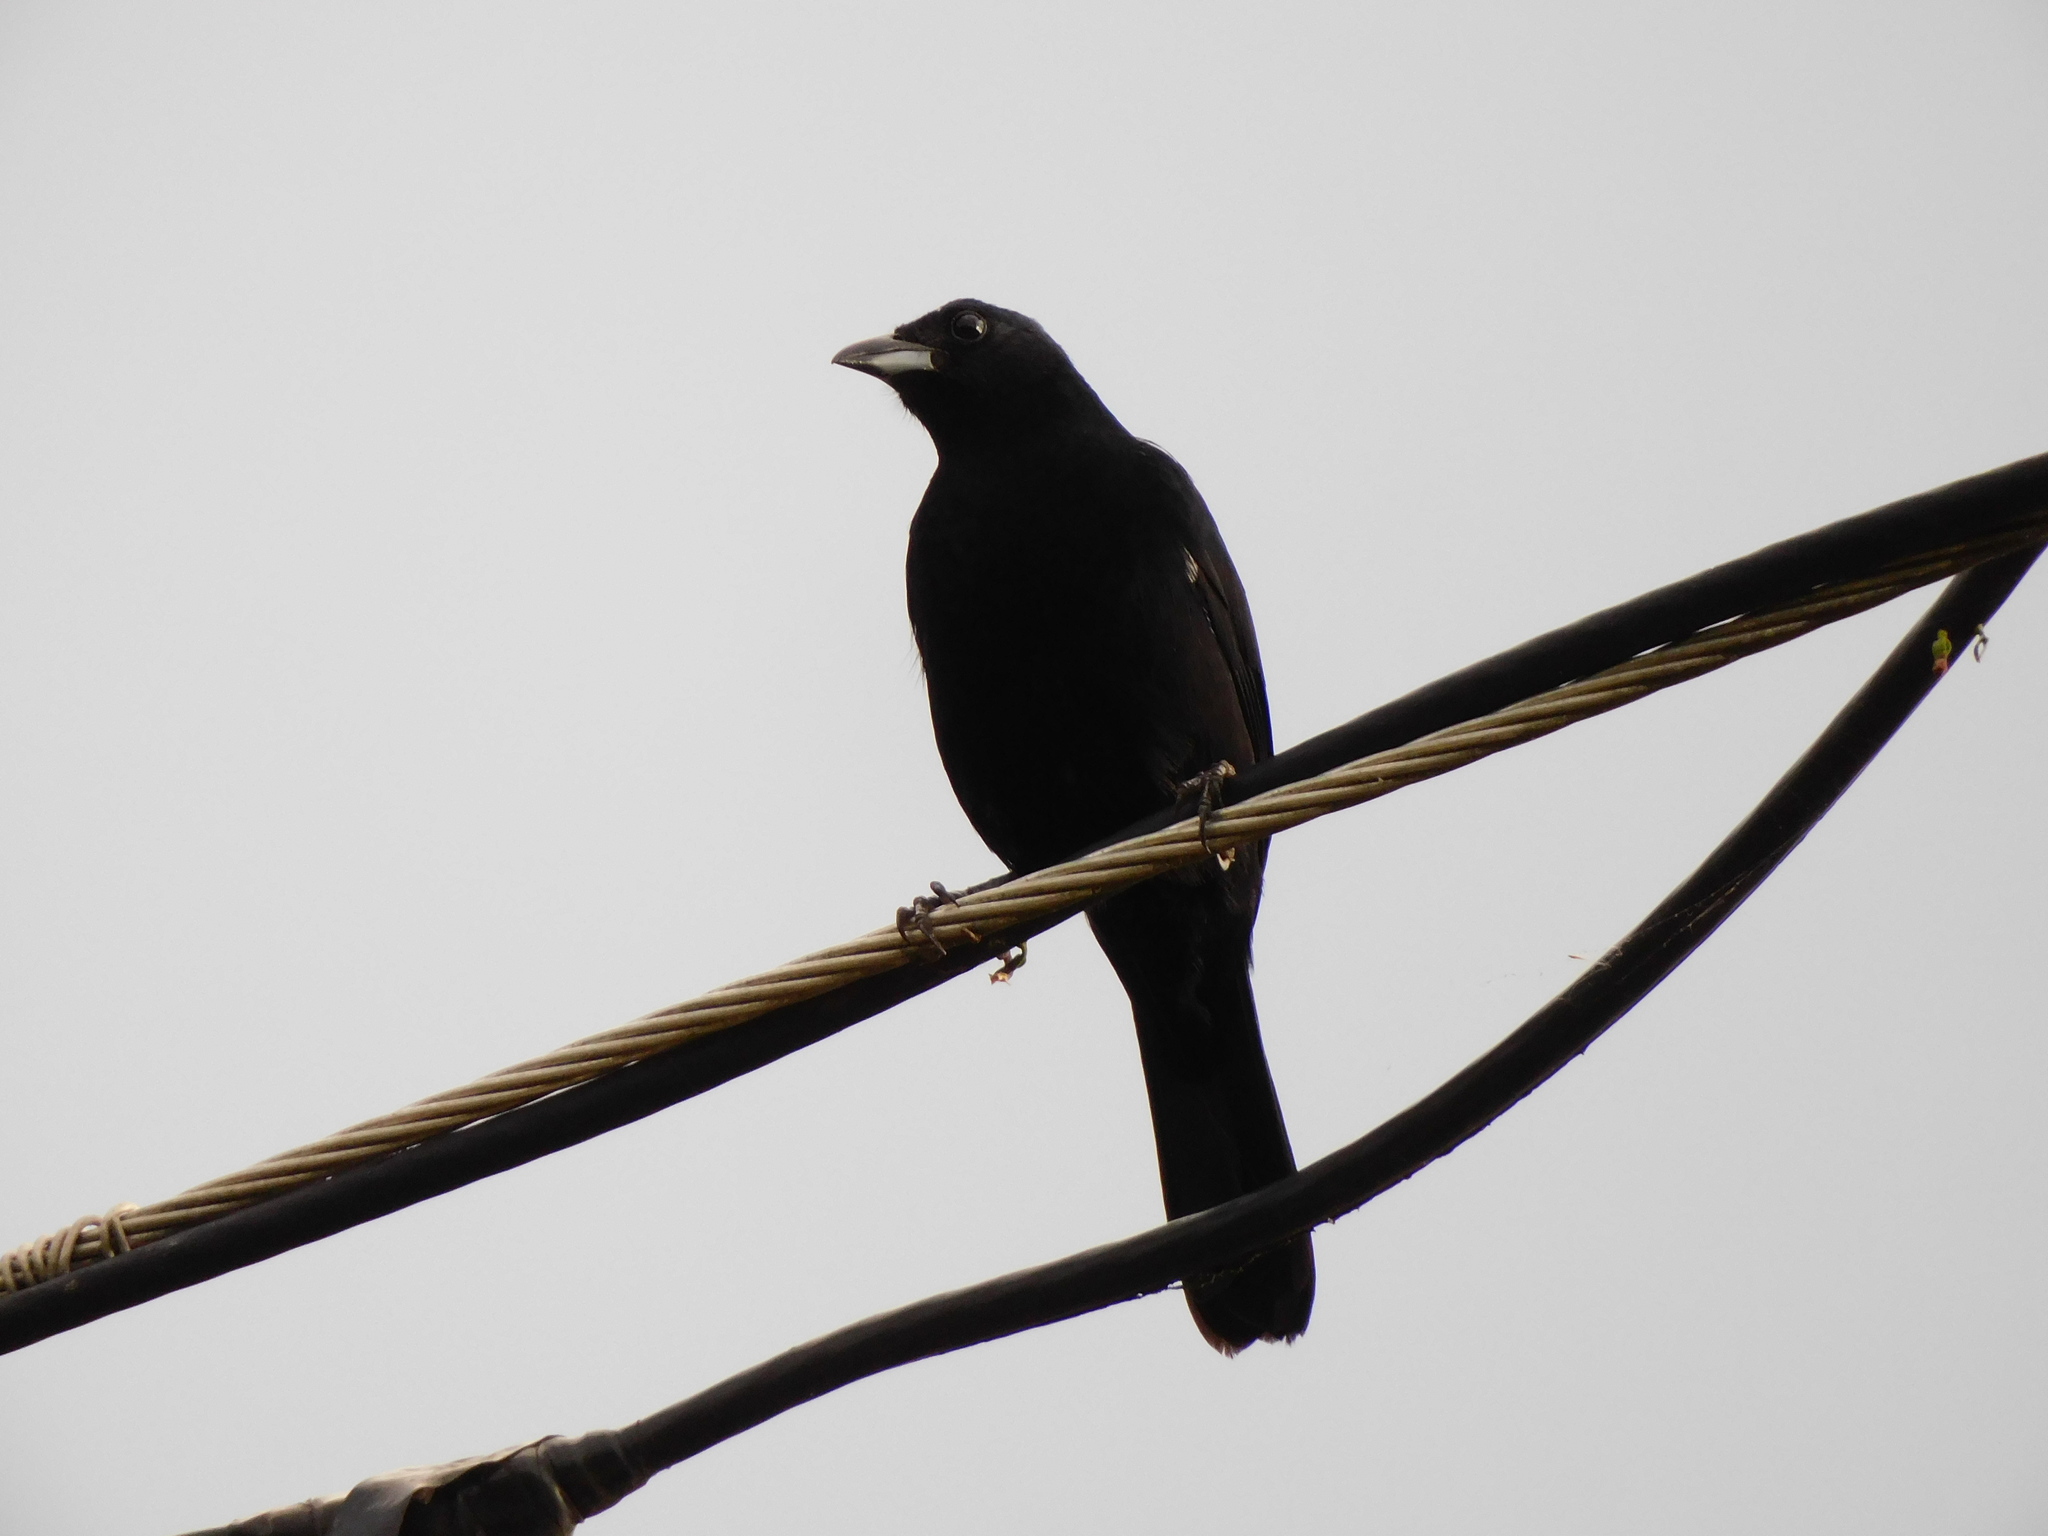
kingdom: Animalia
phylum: Chordata
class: Aves
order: Passeriformes
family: Thraupidae
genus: Tachyphonus
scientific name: Tachyphonus rufus
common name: White-lined tanager
